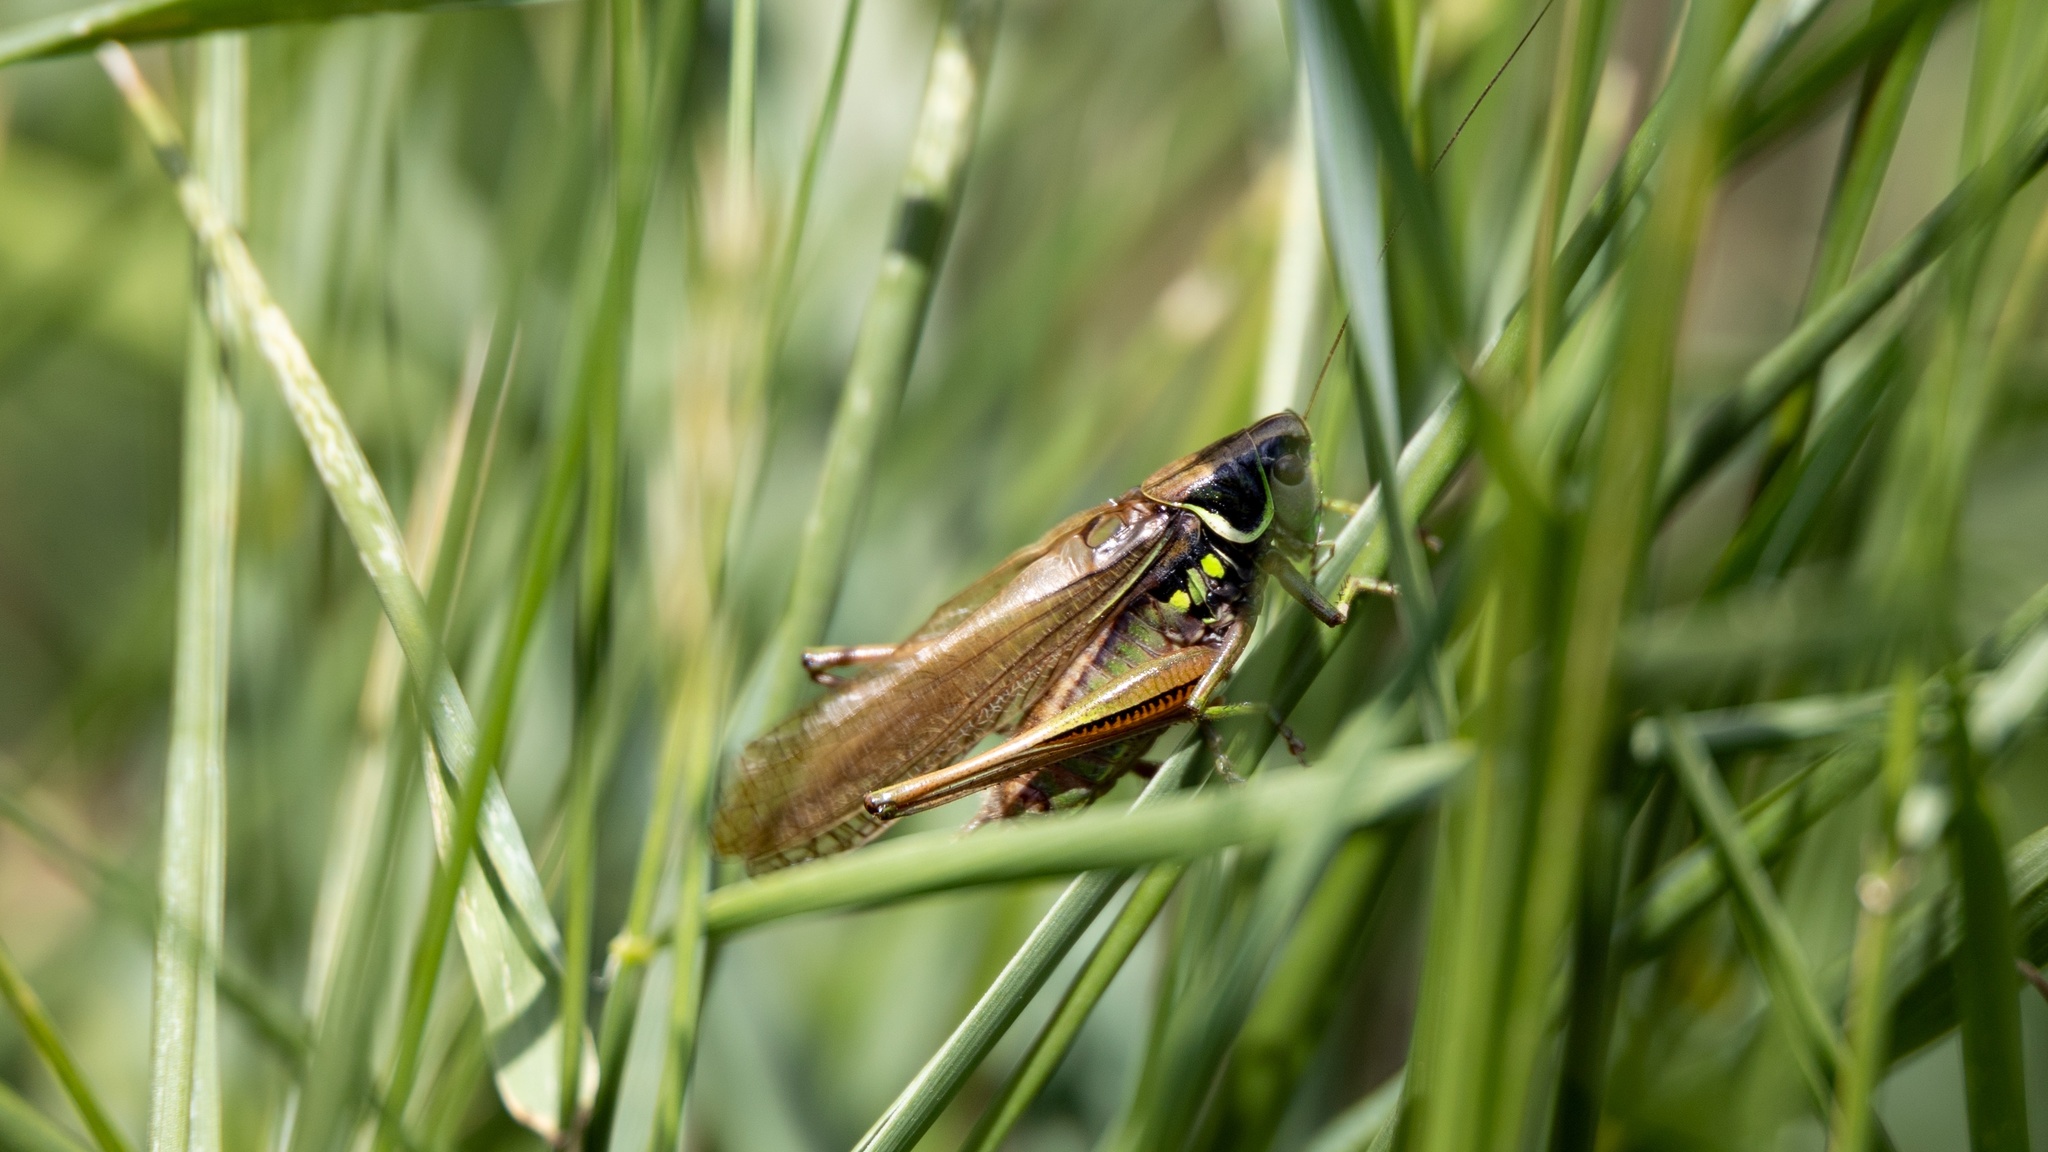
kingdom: Animalia
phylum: Arthropoda
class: Insecta
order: Orthoptera
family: Tettigoniidae
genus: Roeseliana
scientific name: Roeseliana roeselii
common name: Roesel's bush cricket
